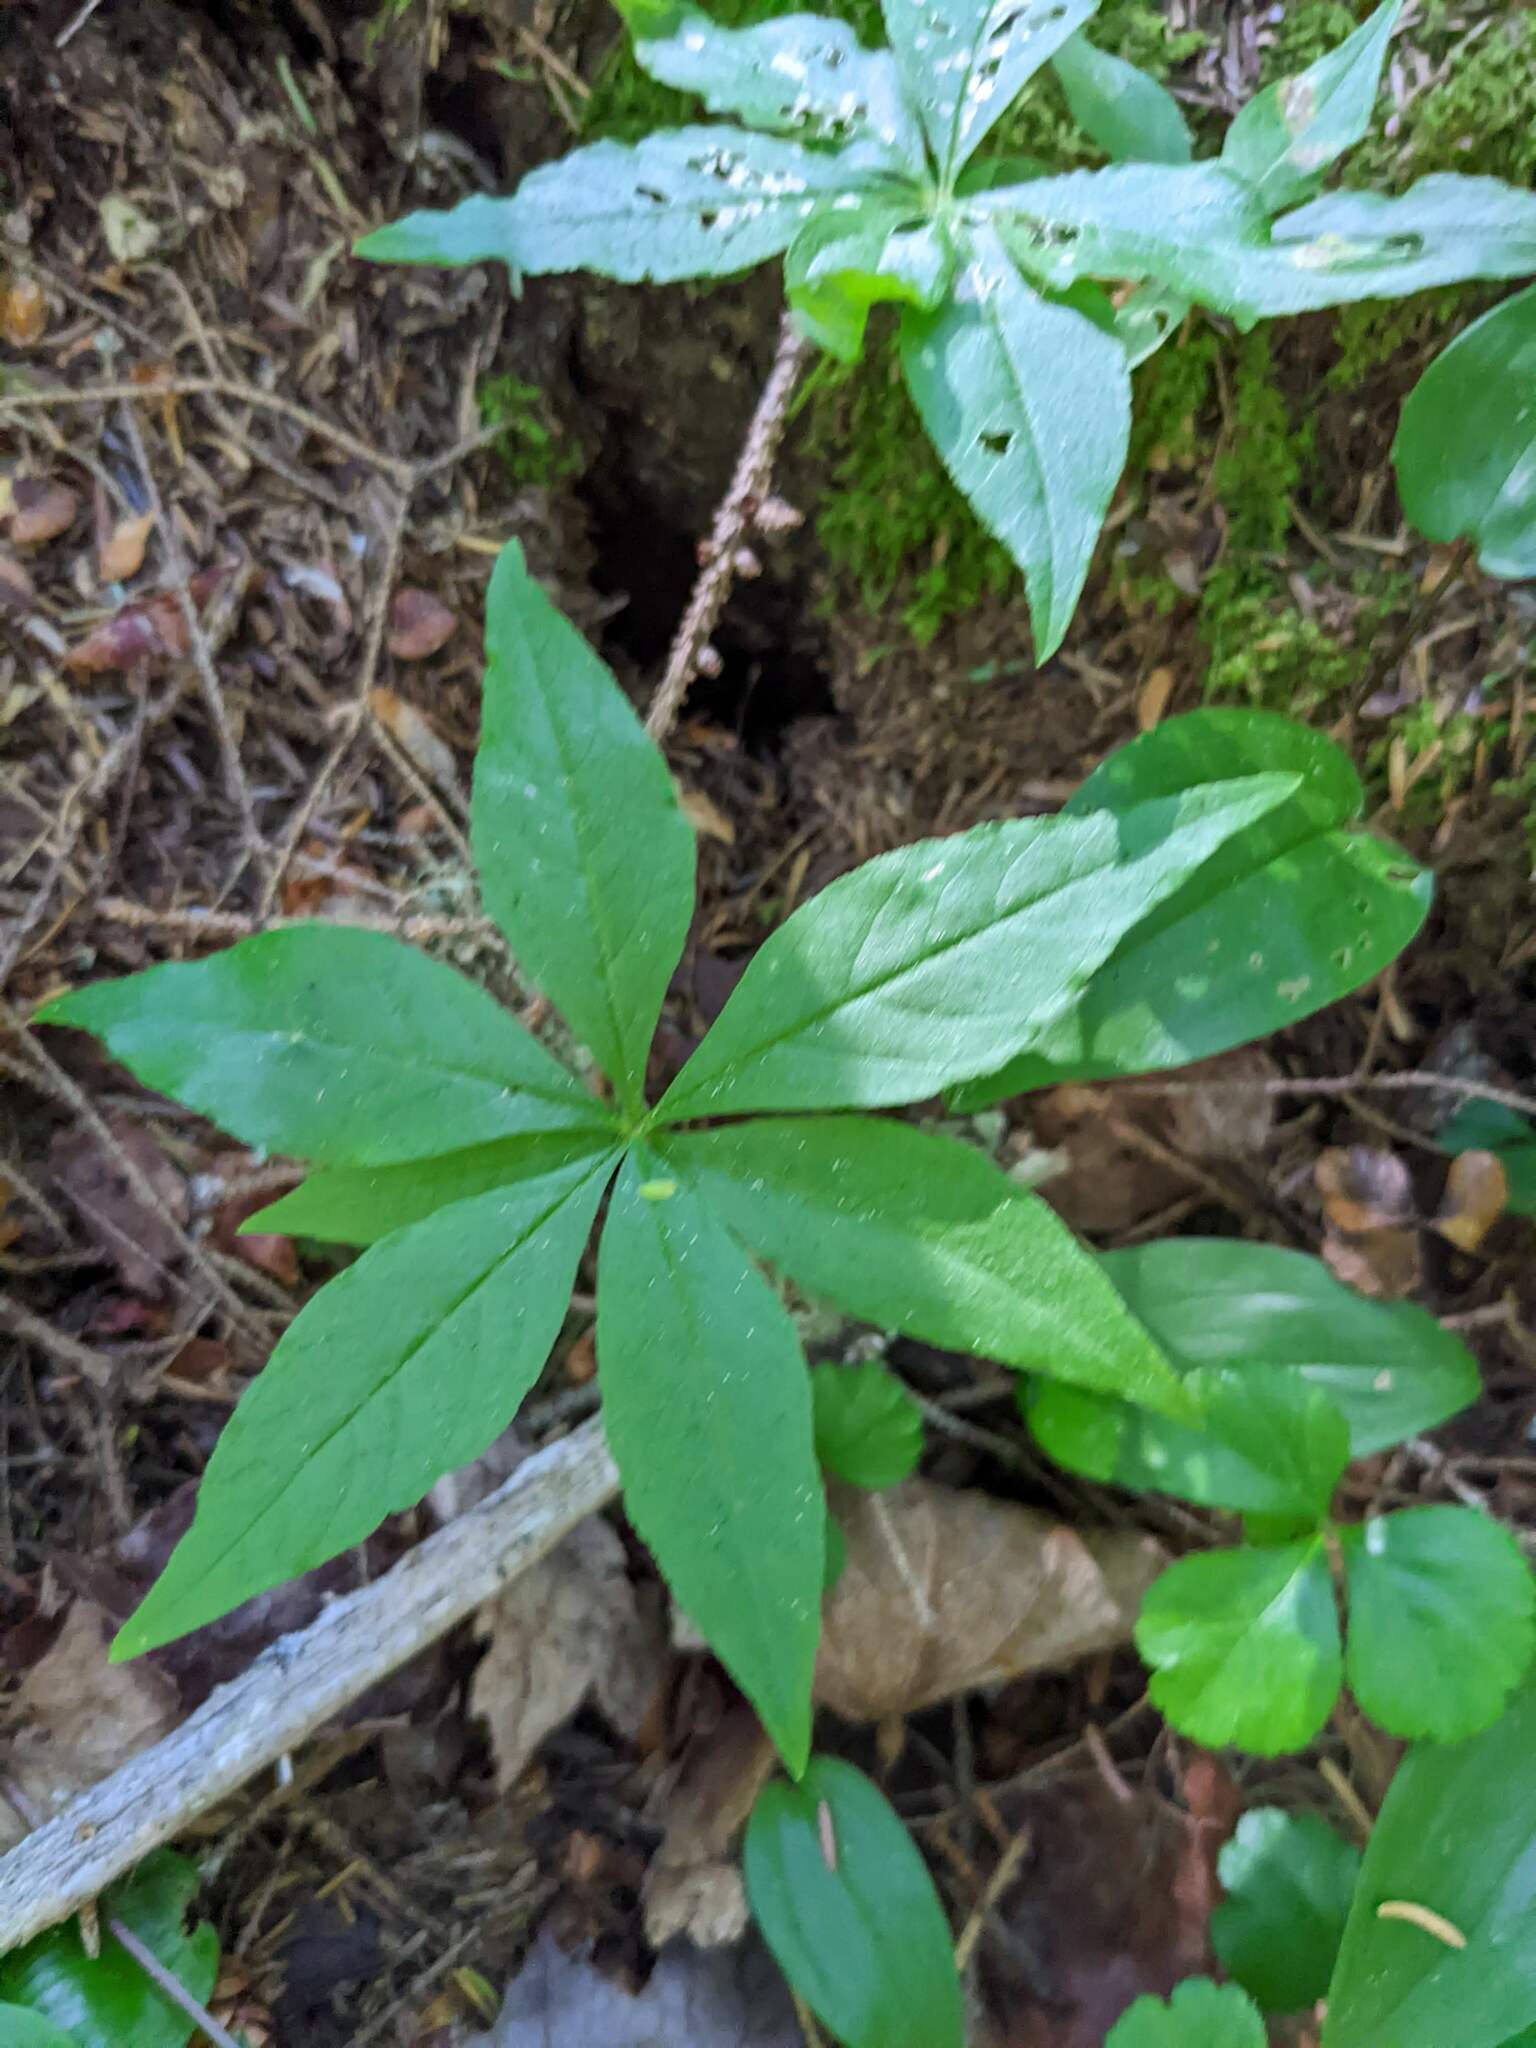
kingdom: Plantae
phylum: Tracheophyta
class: Magnoliopsida
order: Ericales
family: Primulaceae
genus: Lysimachia
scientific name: Lysimachia borealis
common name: American starflower
